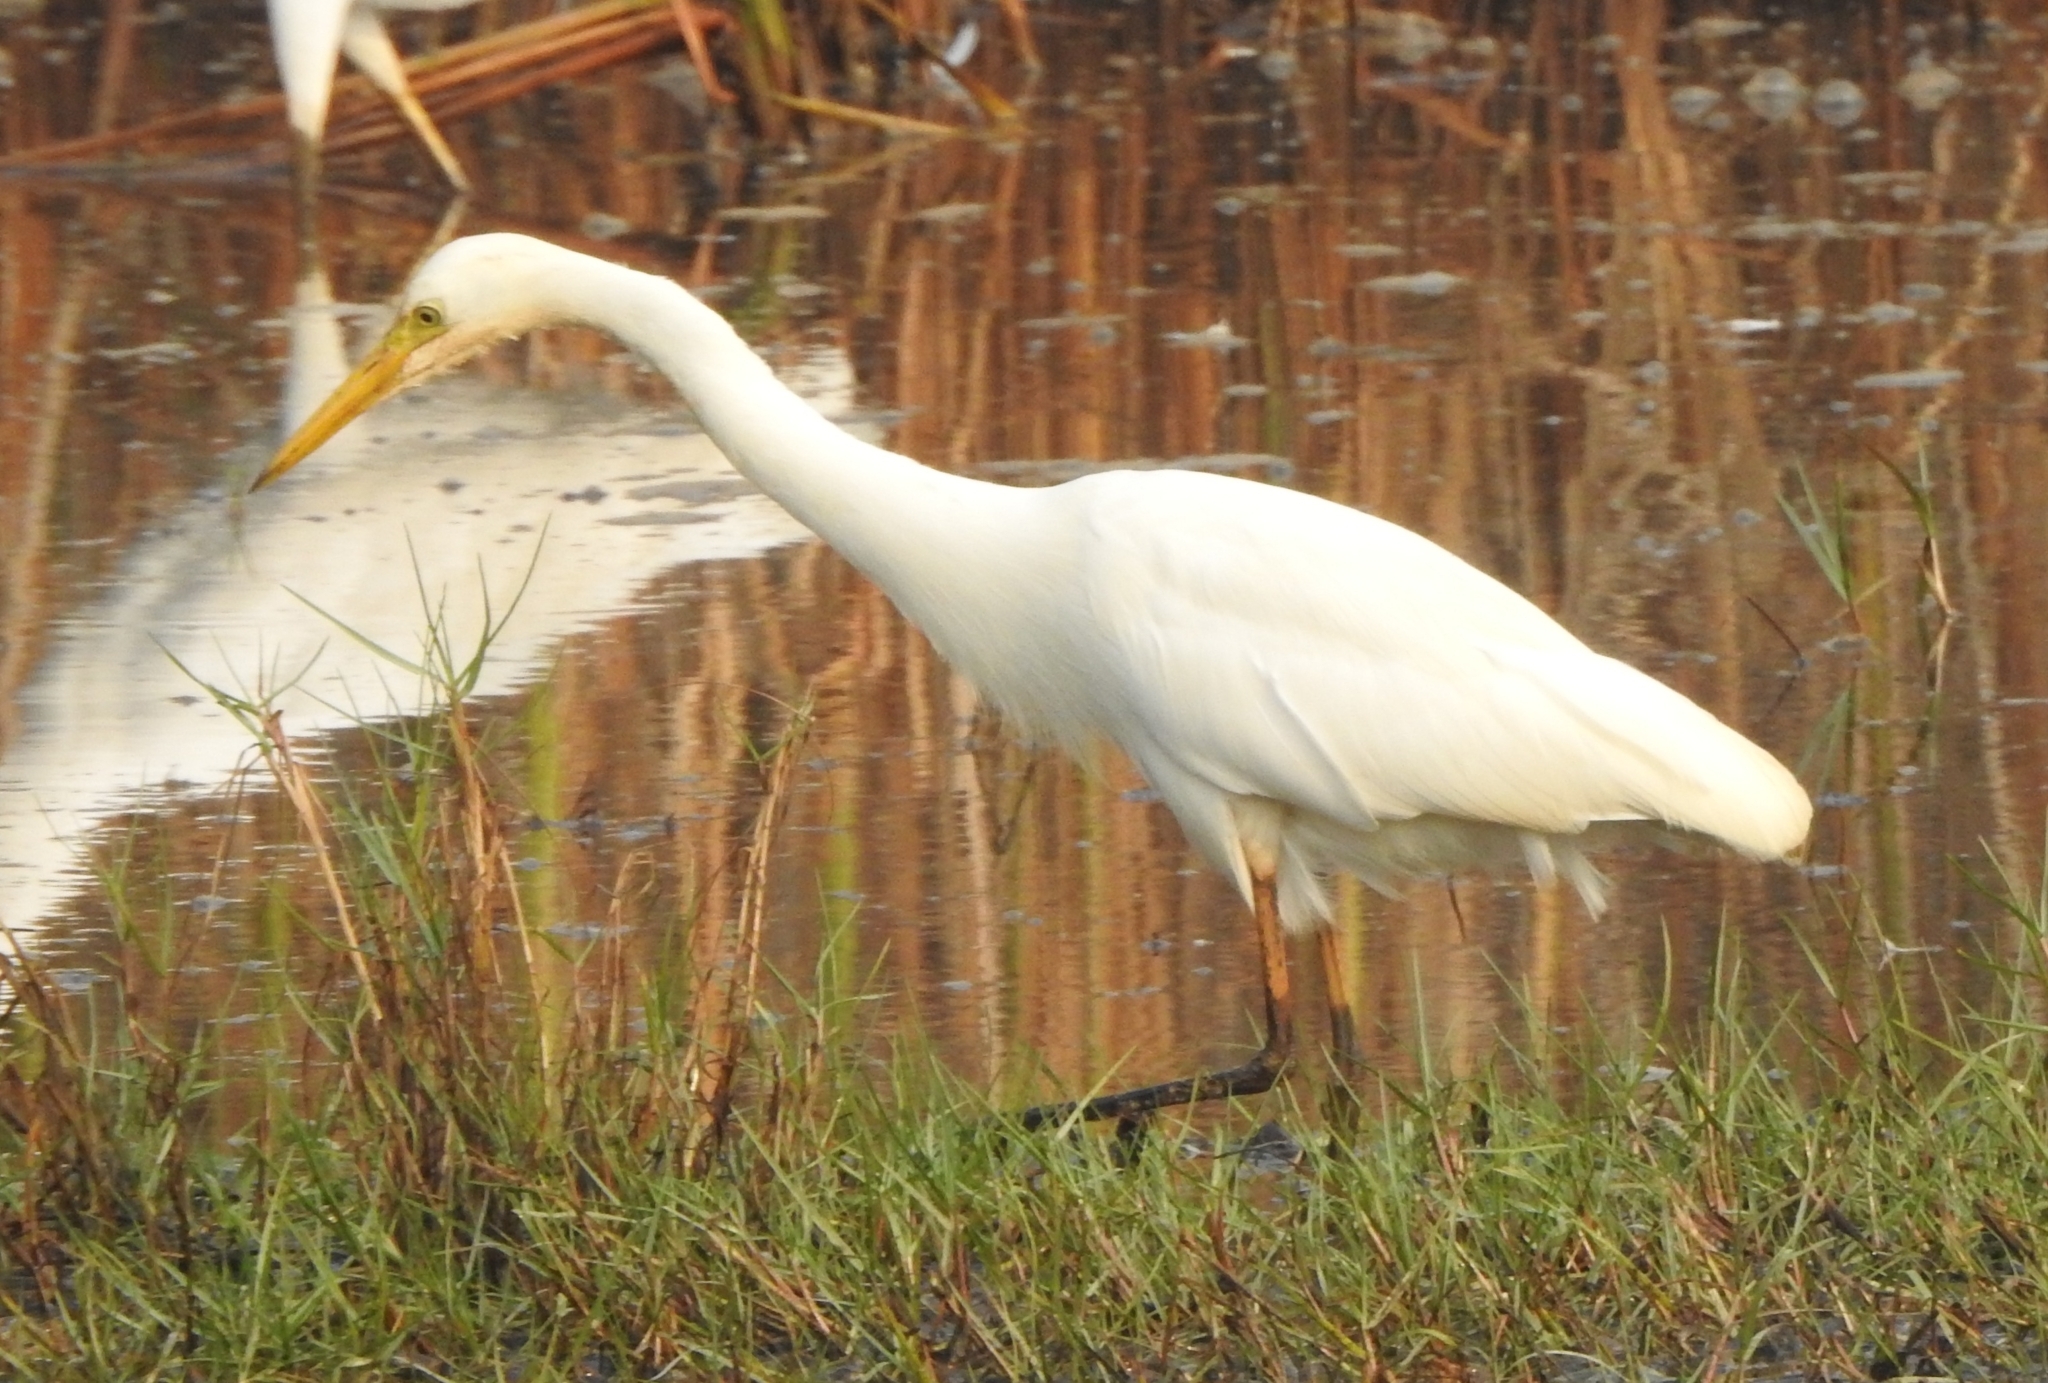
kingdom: Animalia
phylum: Chordata
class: Aves
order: Pelecaniformes
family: Ardeidae
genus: Egretta
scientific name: Egretta intermedia
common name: Intermediate egret
